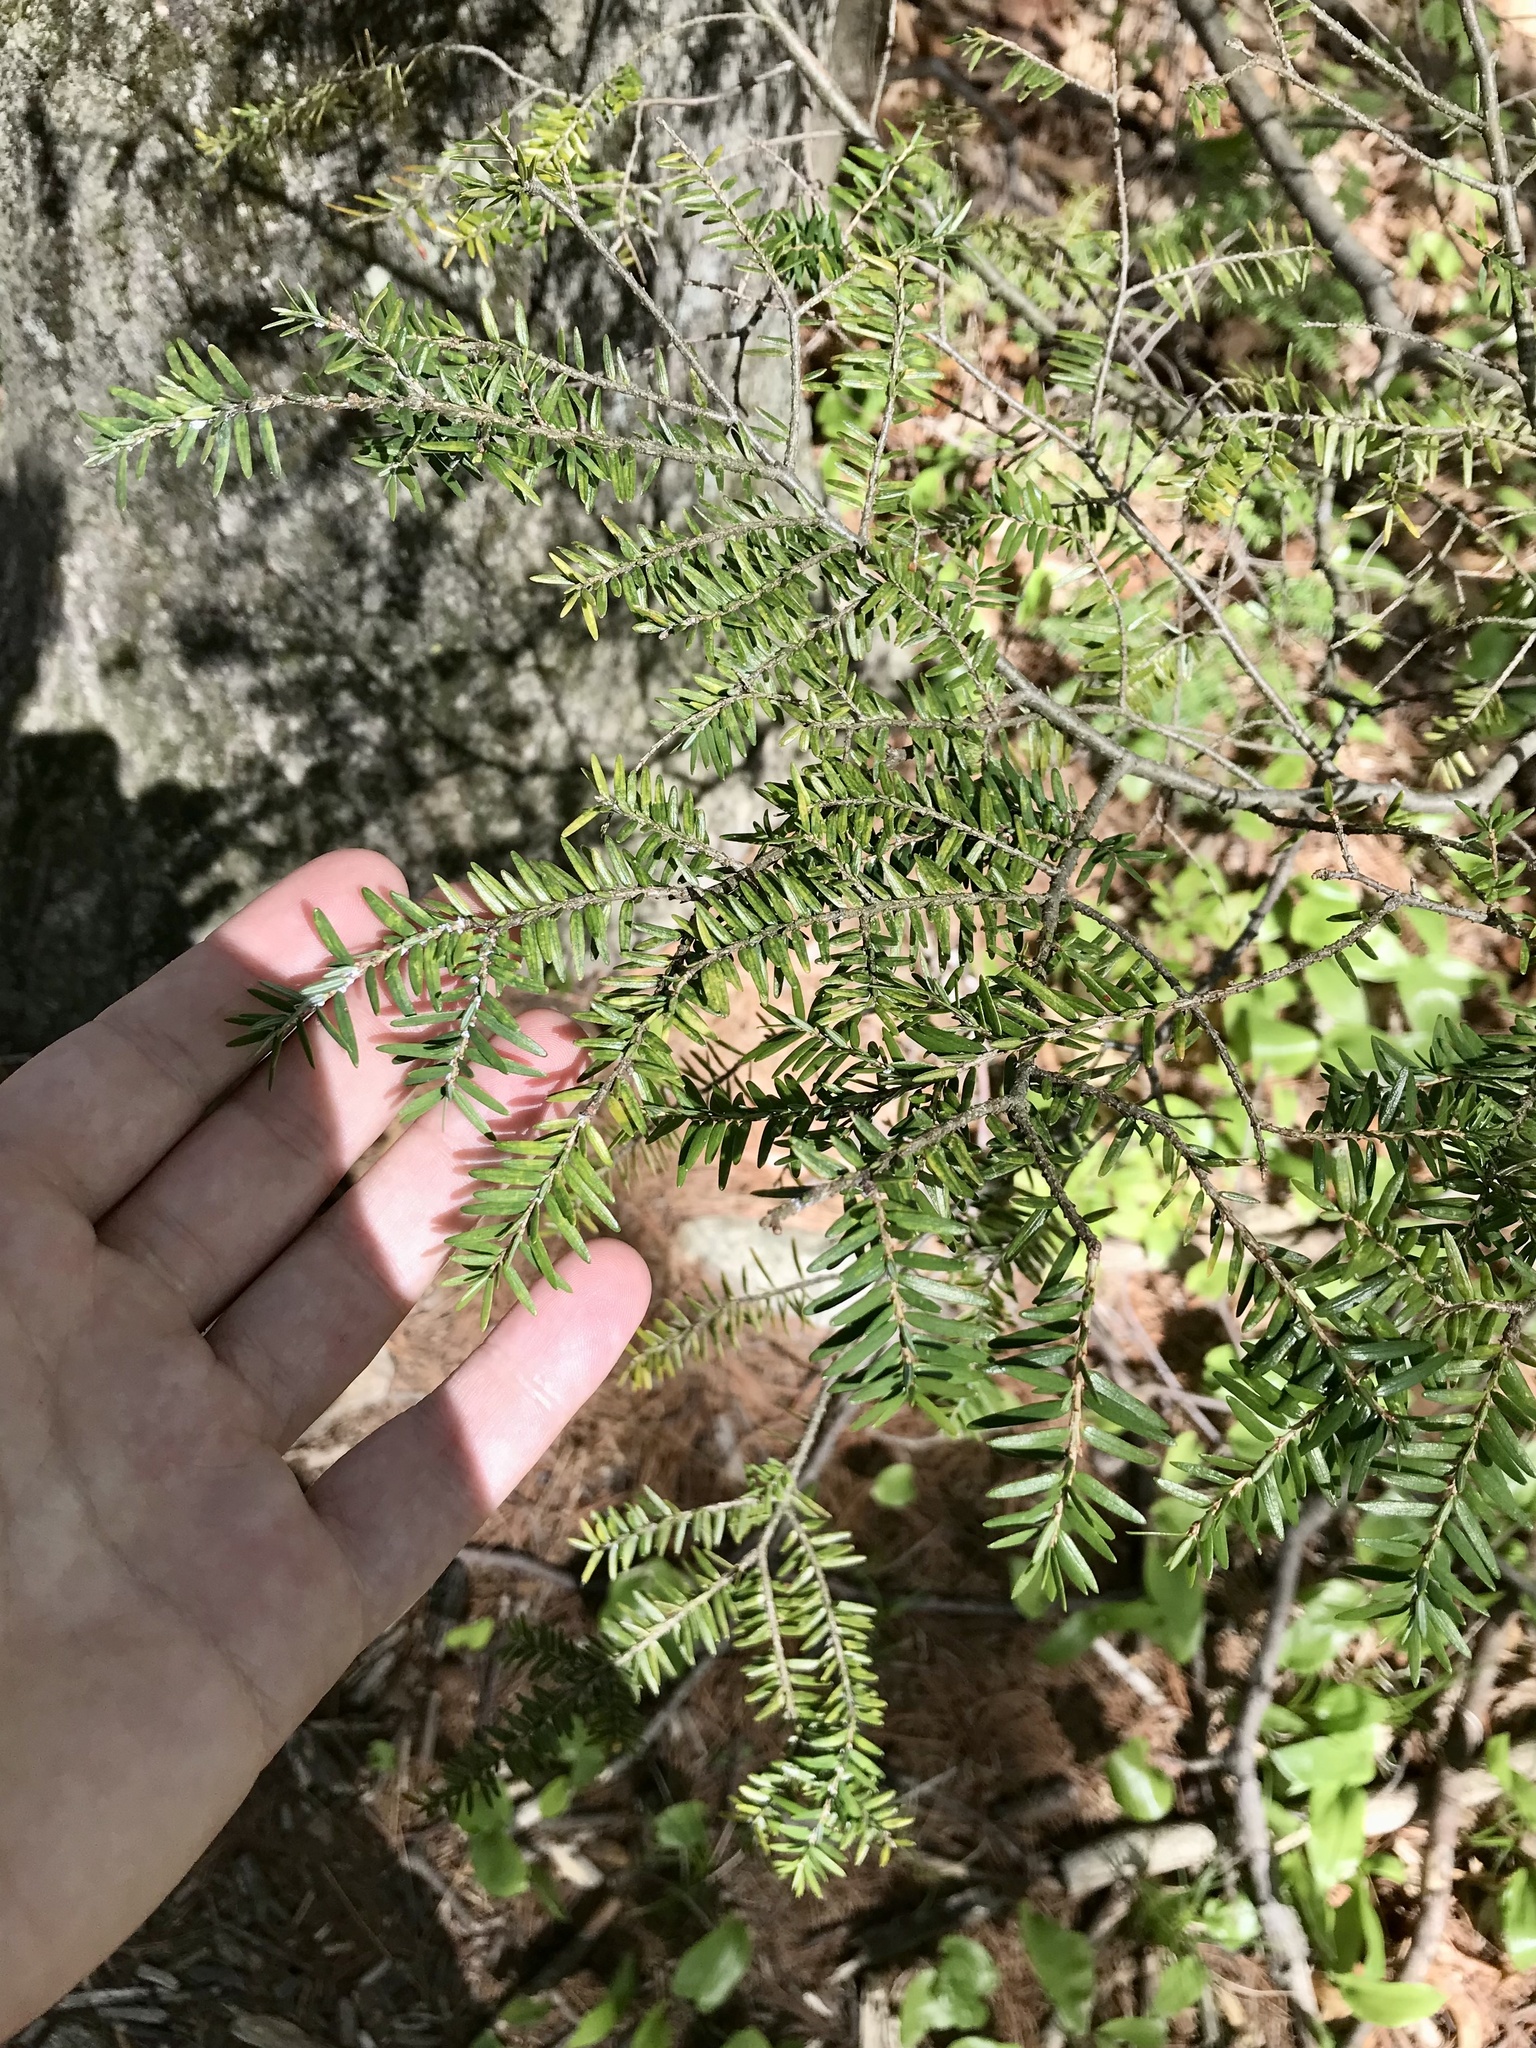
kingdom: Plantae
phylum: Tracheophyta
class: Pinopsida
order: Pinales
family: Pinaceae
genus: Tsuga
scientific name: Tsuga canadensis
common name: Eastern hemlock
